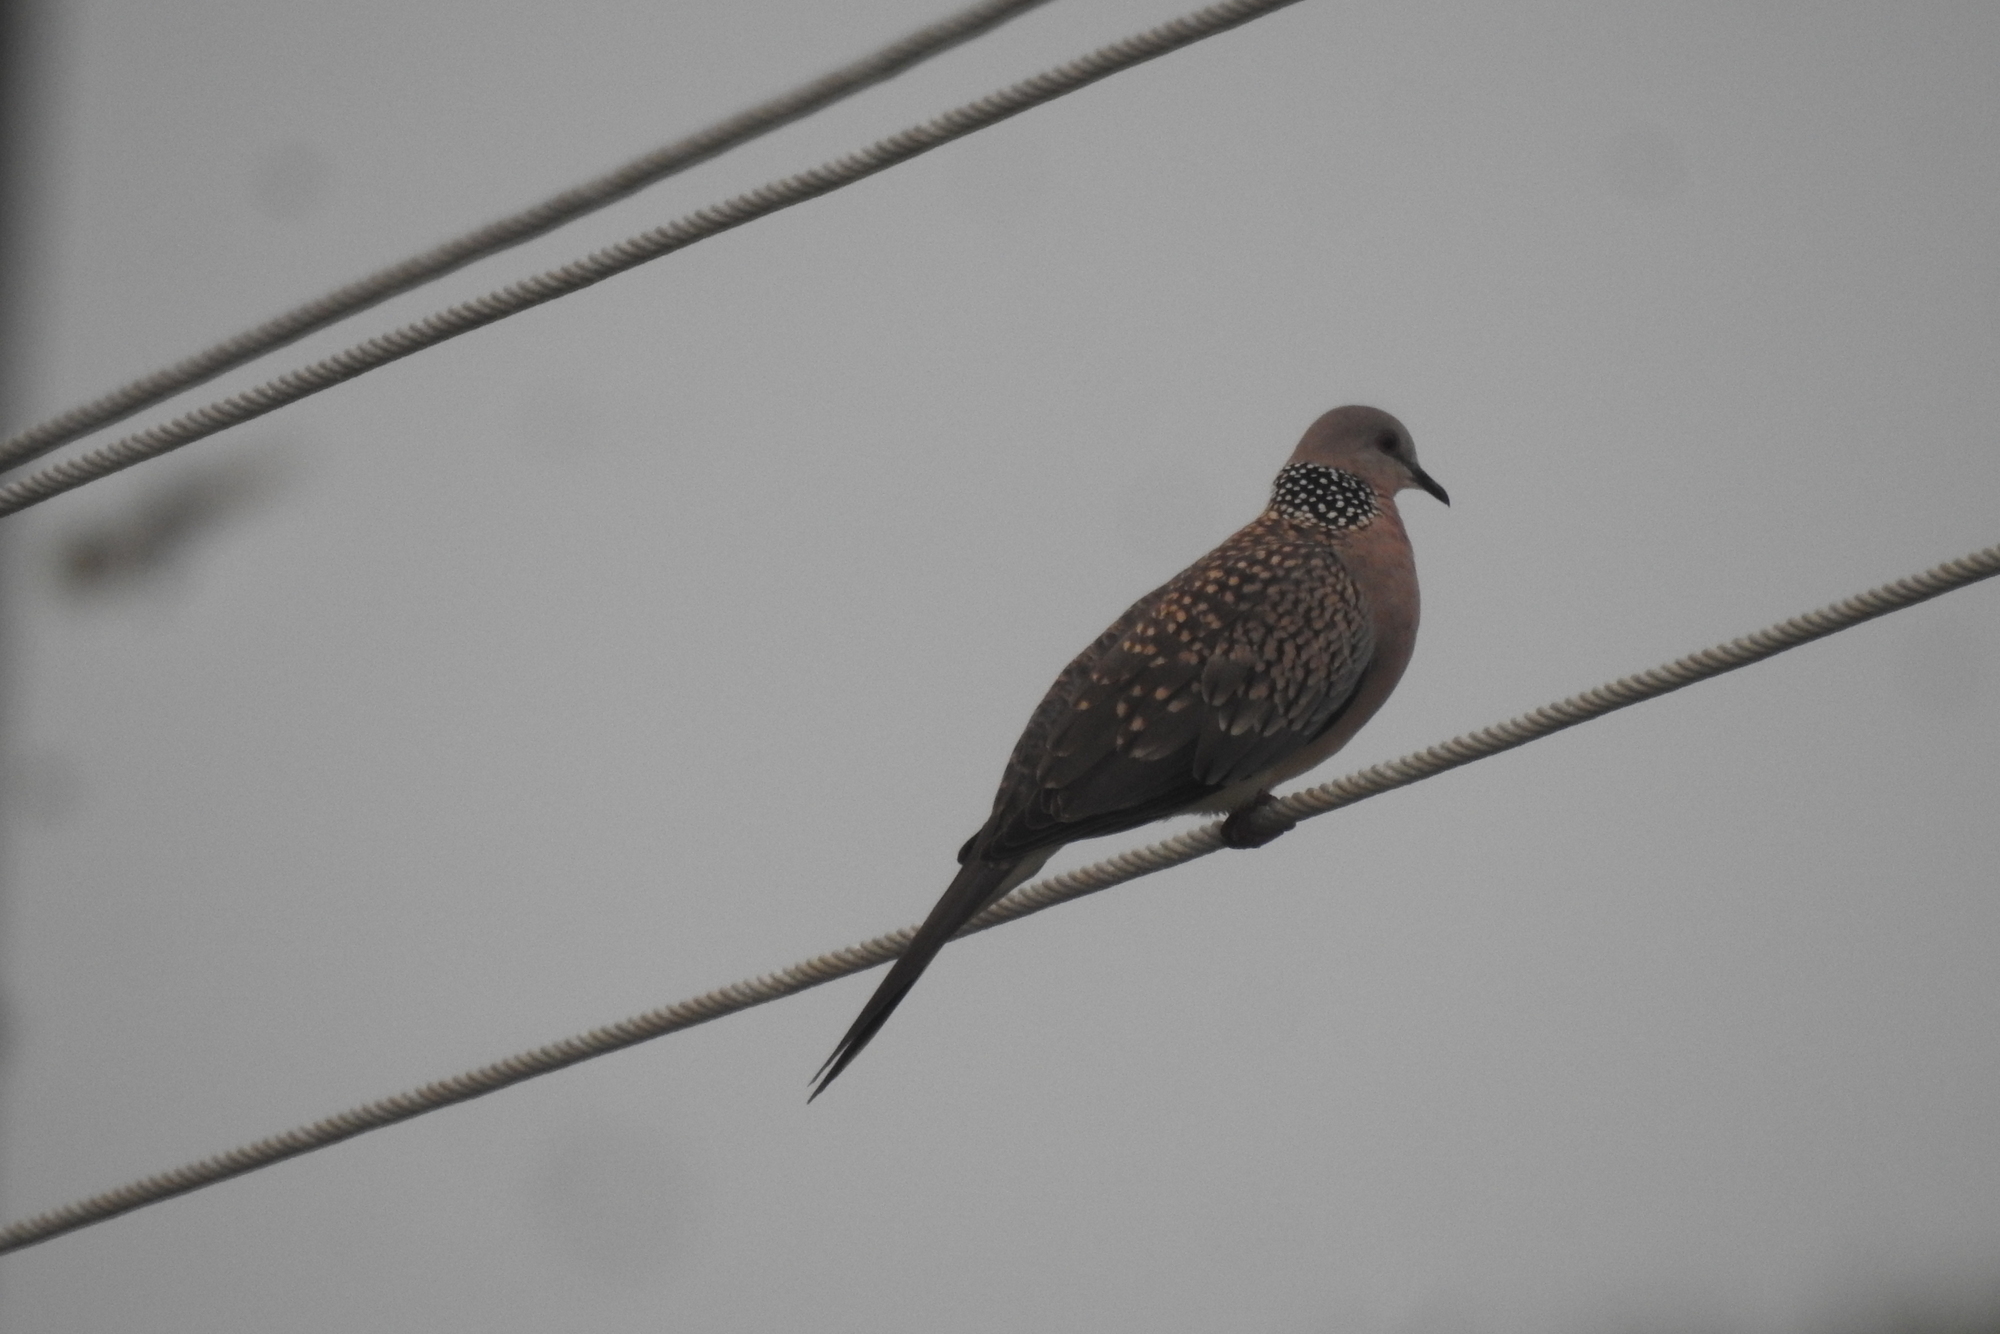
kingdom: Animalia
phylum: Chordata
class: Aves
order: Columbiformes
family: Columbidae
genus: Spilopelia
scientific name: Spilopelia chinensis
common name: Spotted dove
